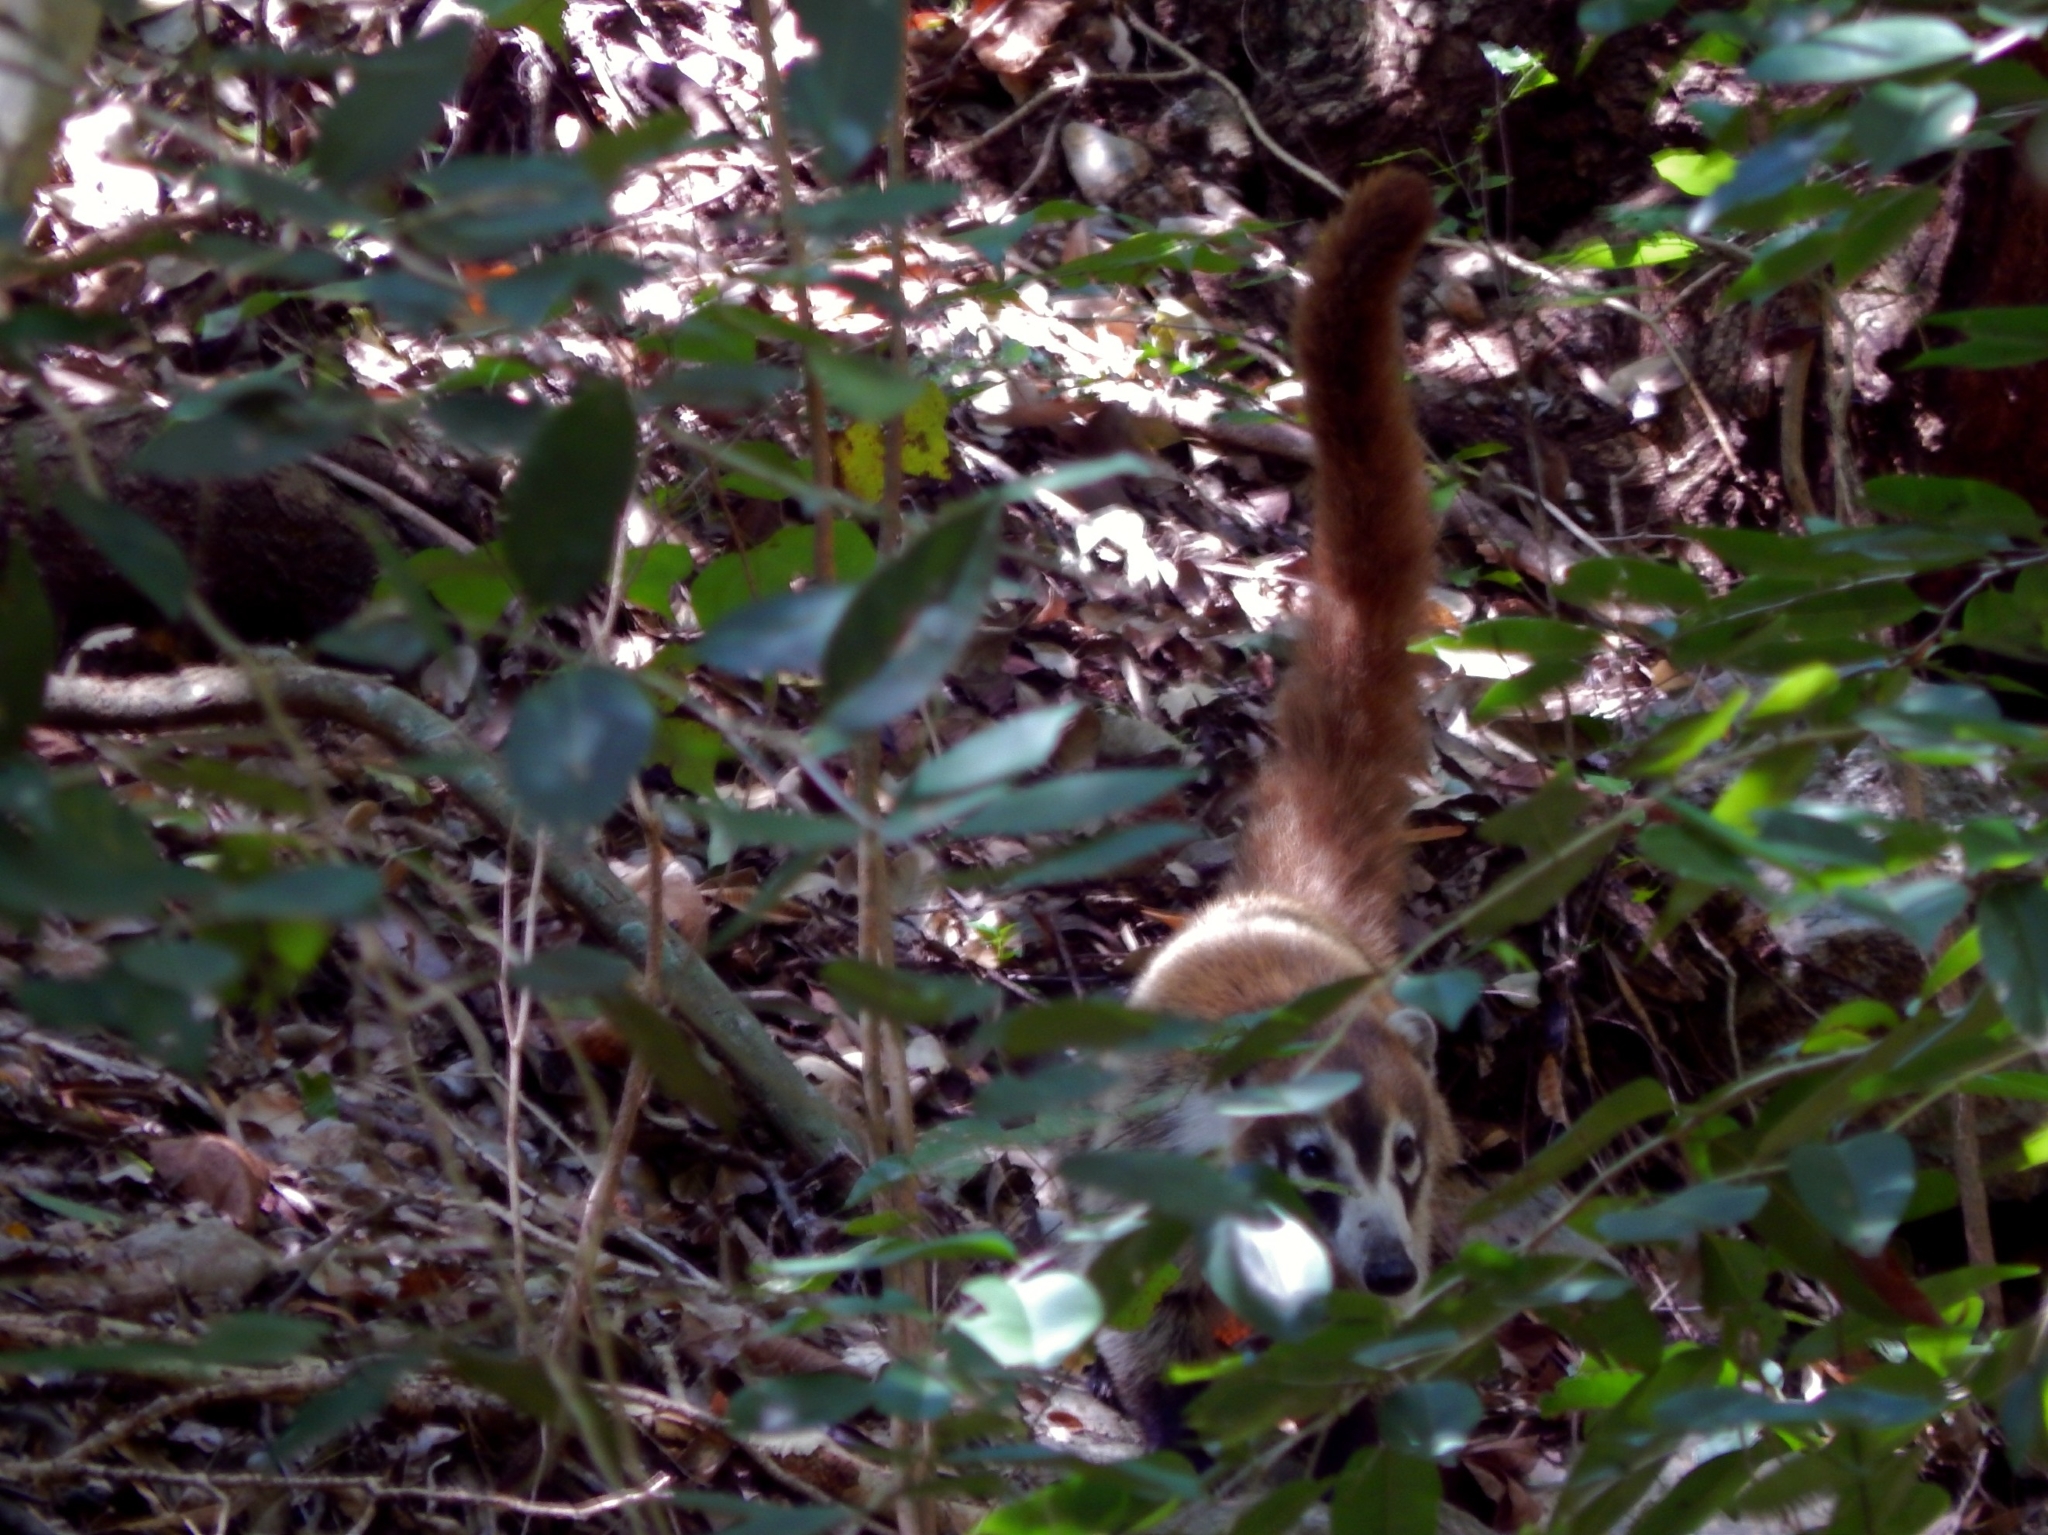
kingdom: Animalia
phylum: Chordata
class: Mammalia
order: Carnivora
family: Procyonidae
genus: Nasua
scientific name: Nasua narica
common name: White-nosed coati
